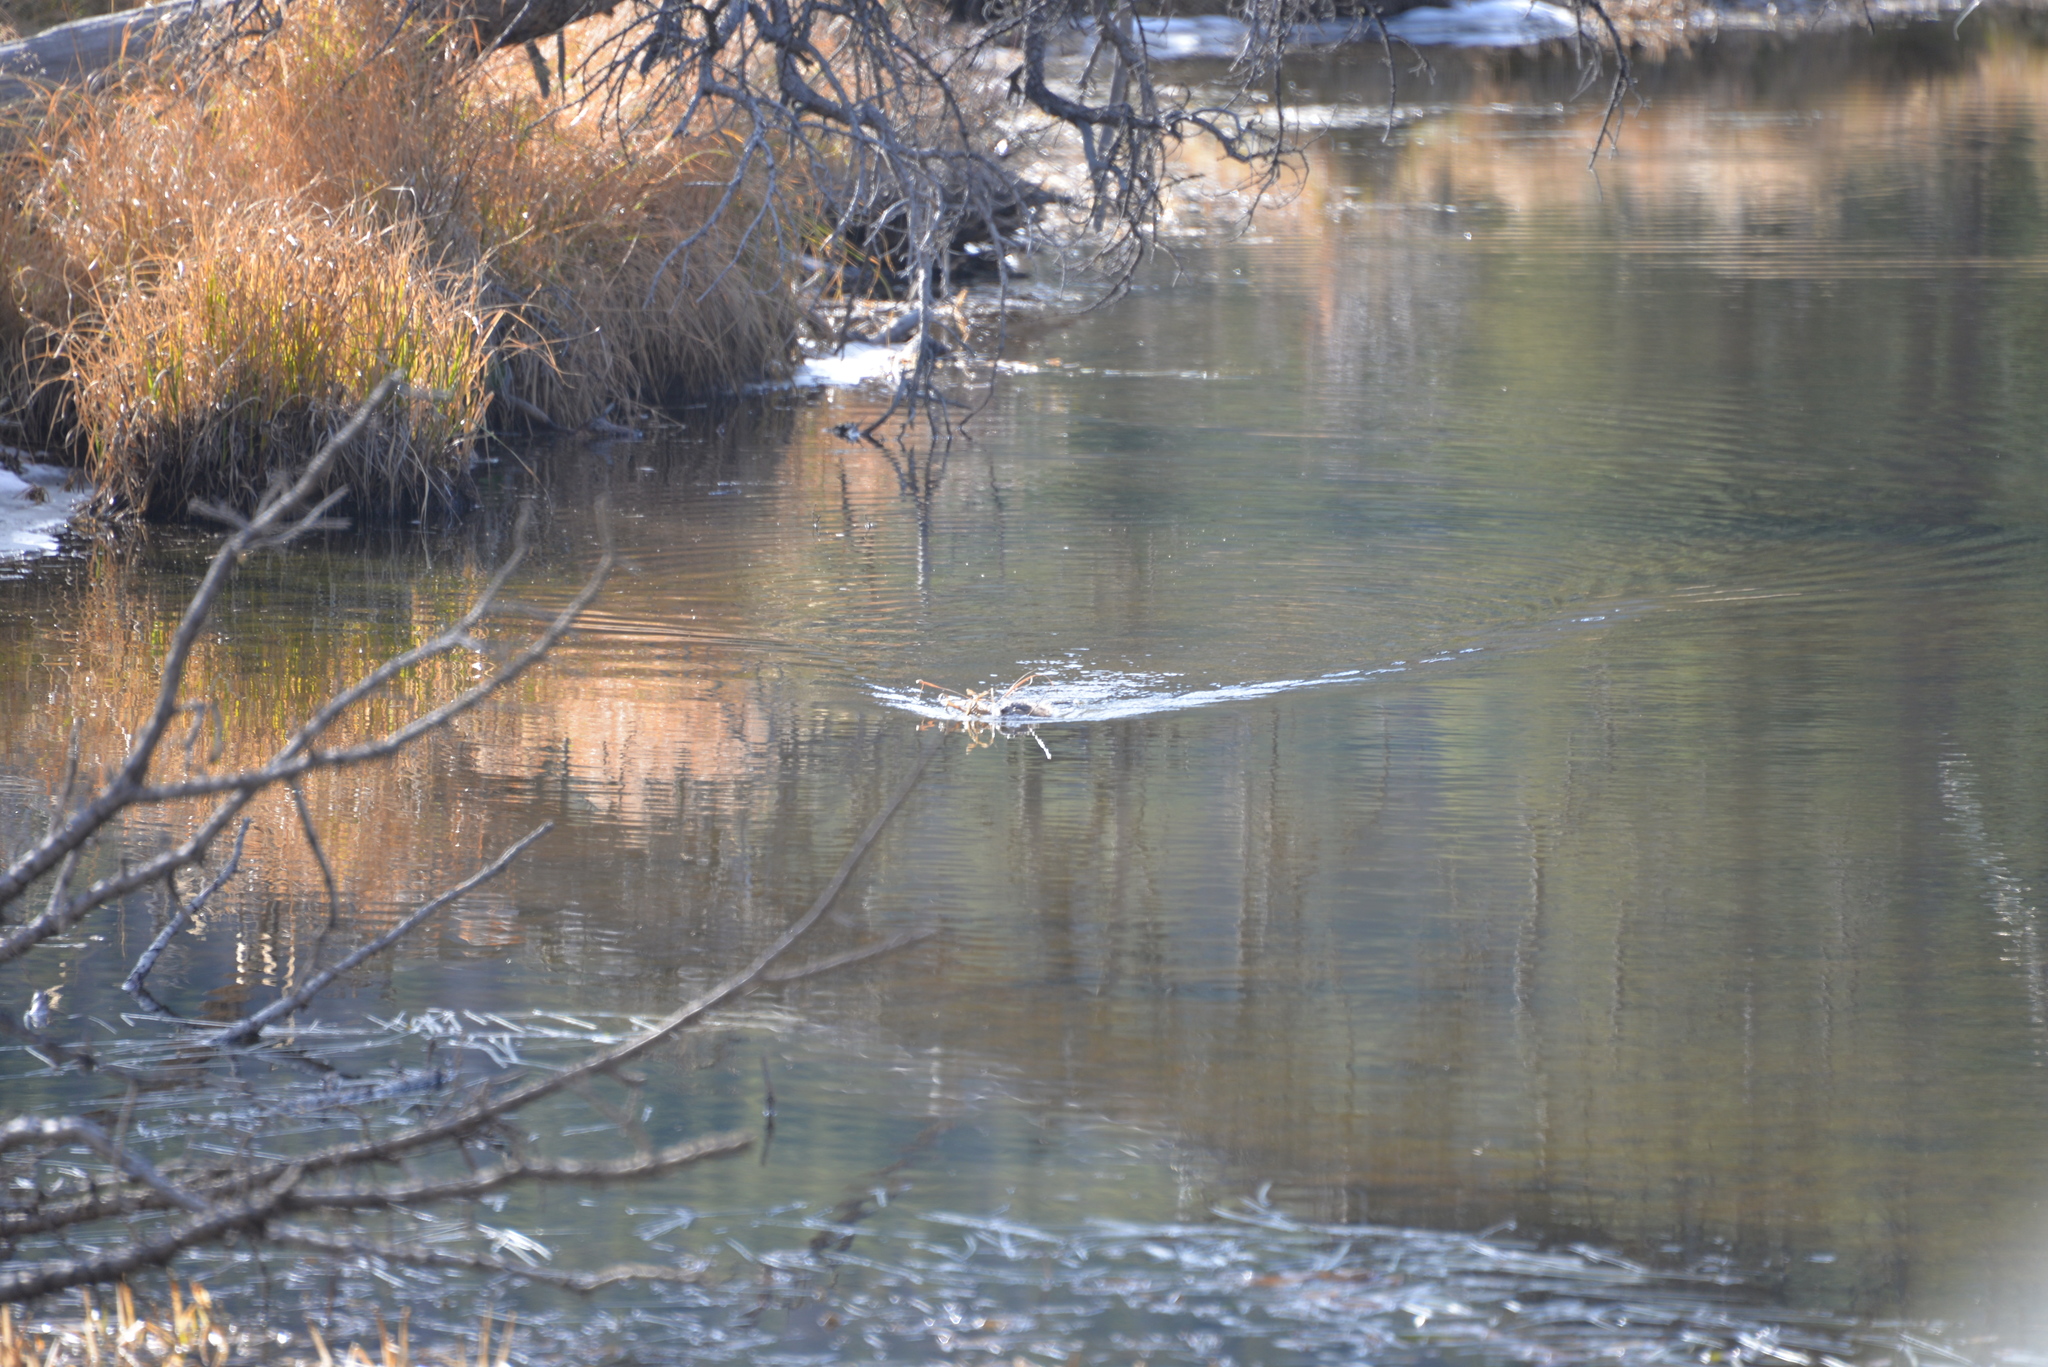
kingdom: Animalia
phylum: Chordata
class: Mammalia
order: Rodentia
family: Castoridae
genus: Castor
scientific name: Castor canadensis
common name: American beaver
